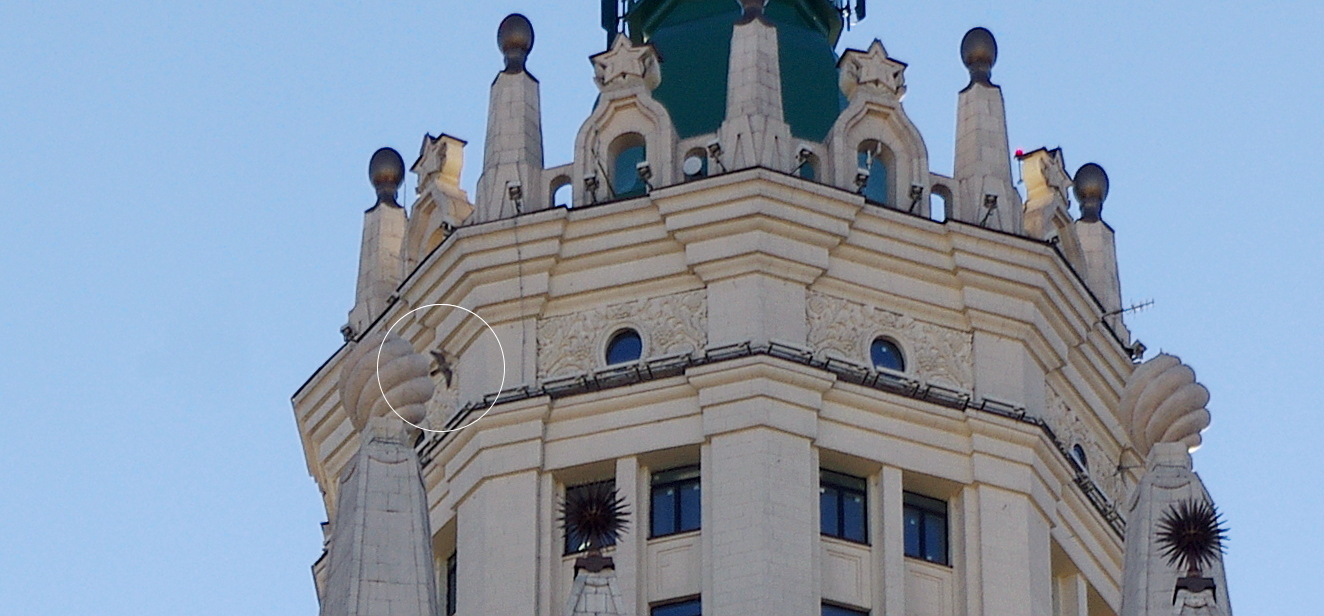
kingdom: Animalia
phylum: Chordata
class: Aves
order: Falconiformes
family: Falconidae
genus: Falco
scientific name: Falco peregrinus
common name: Peregrine falcon
